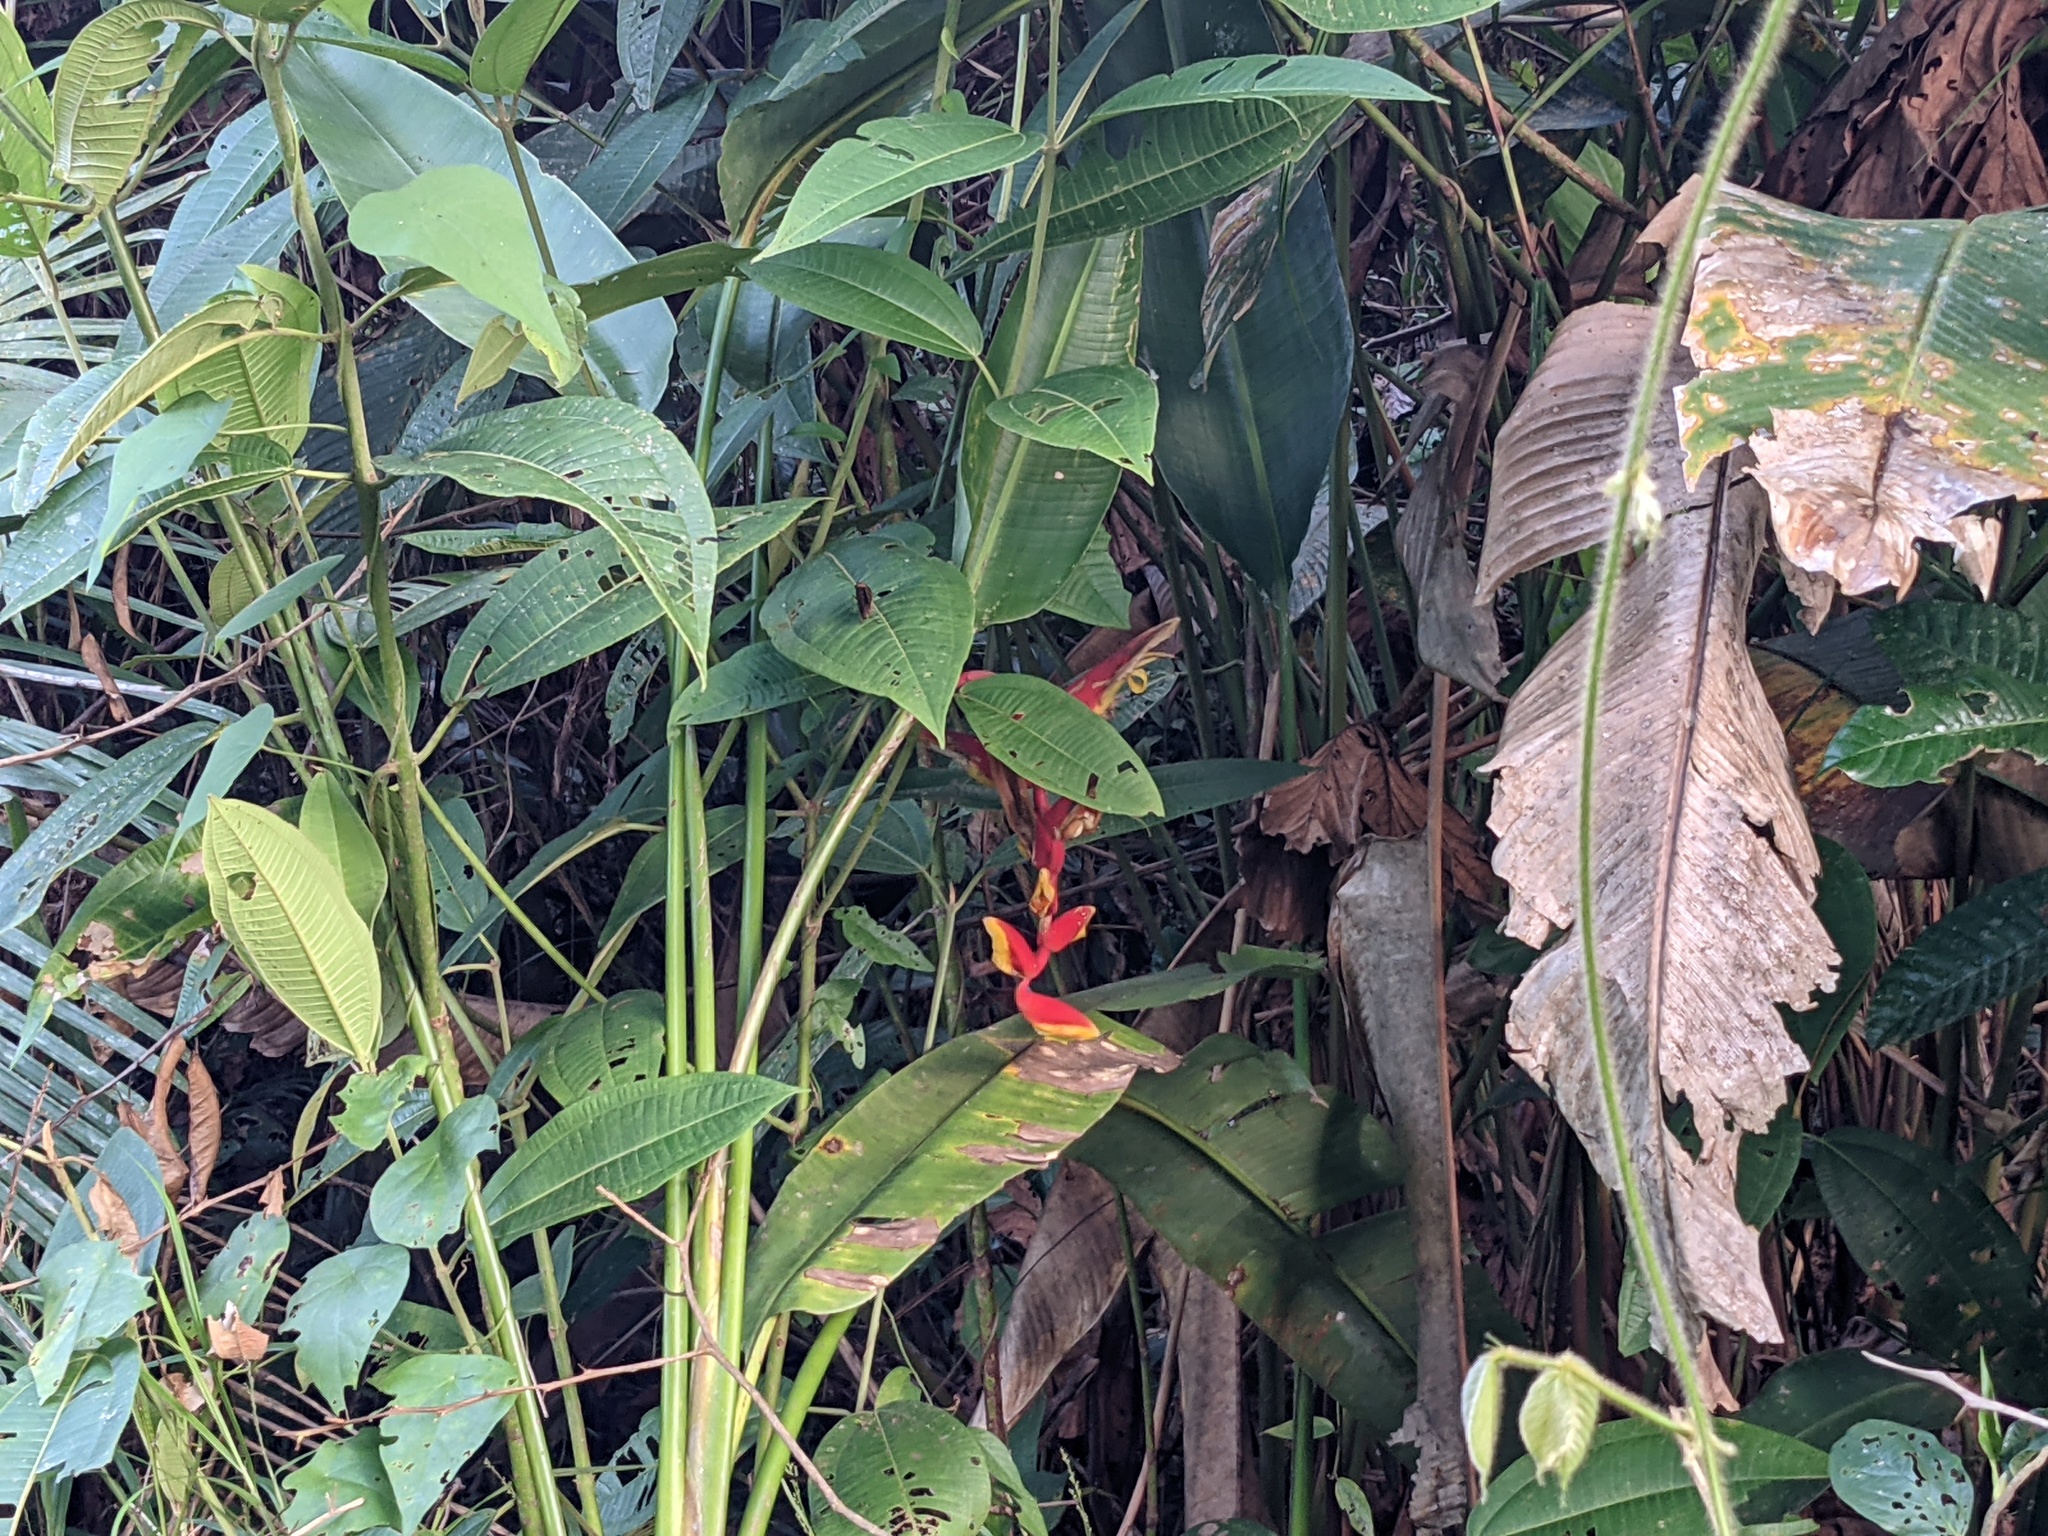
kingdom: Plantae
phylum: Tracheophyta
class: Liliopsida
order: Zingiberales
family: Heliconiaceae
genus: Heliconia
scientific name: Heliconia marginata
